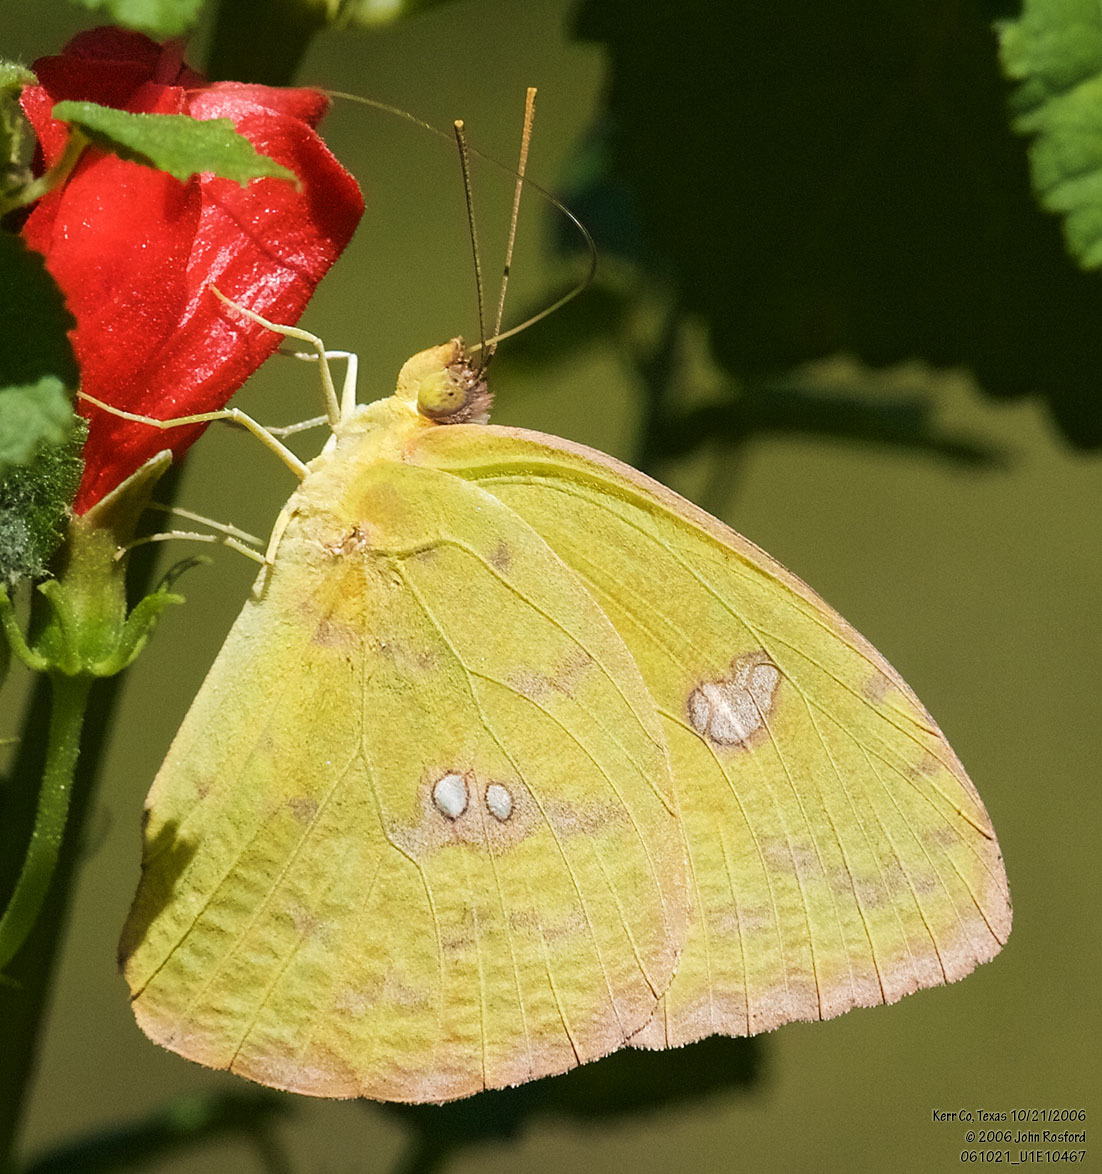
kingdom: Animalia
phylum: Arthropoda
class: Insecta
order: Lepidoptera
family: Pieridae
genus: Phoebis
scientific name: Phoebis sennae
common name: Cloudless sulphur
